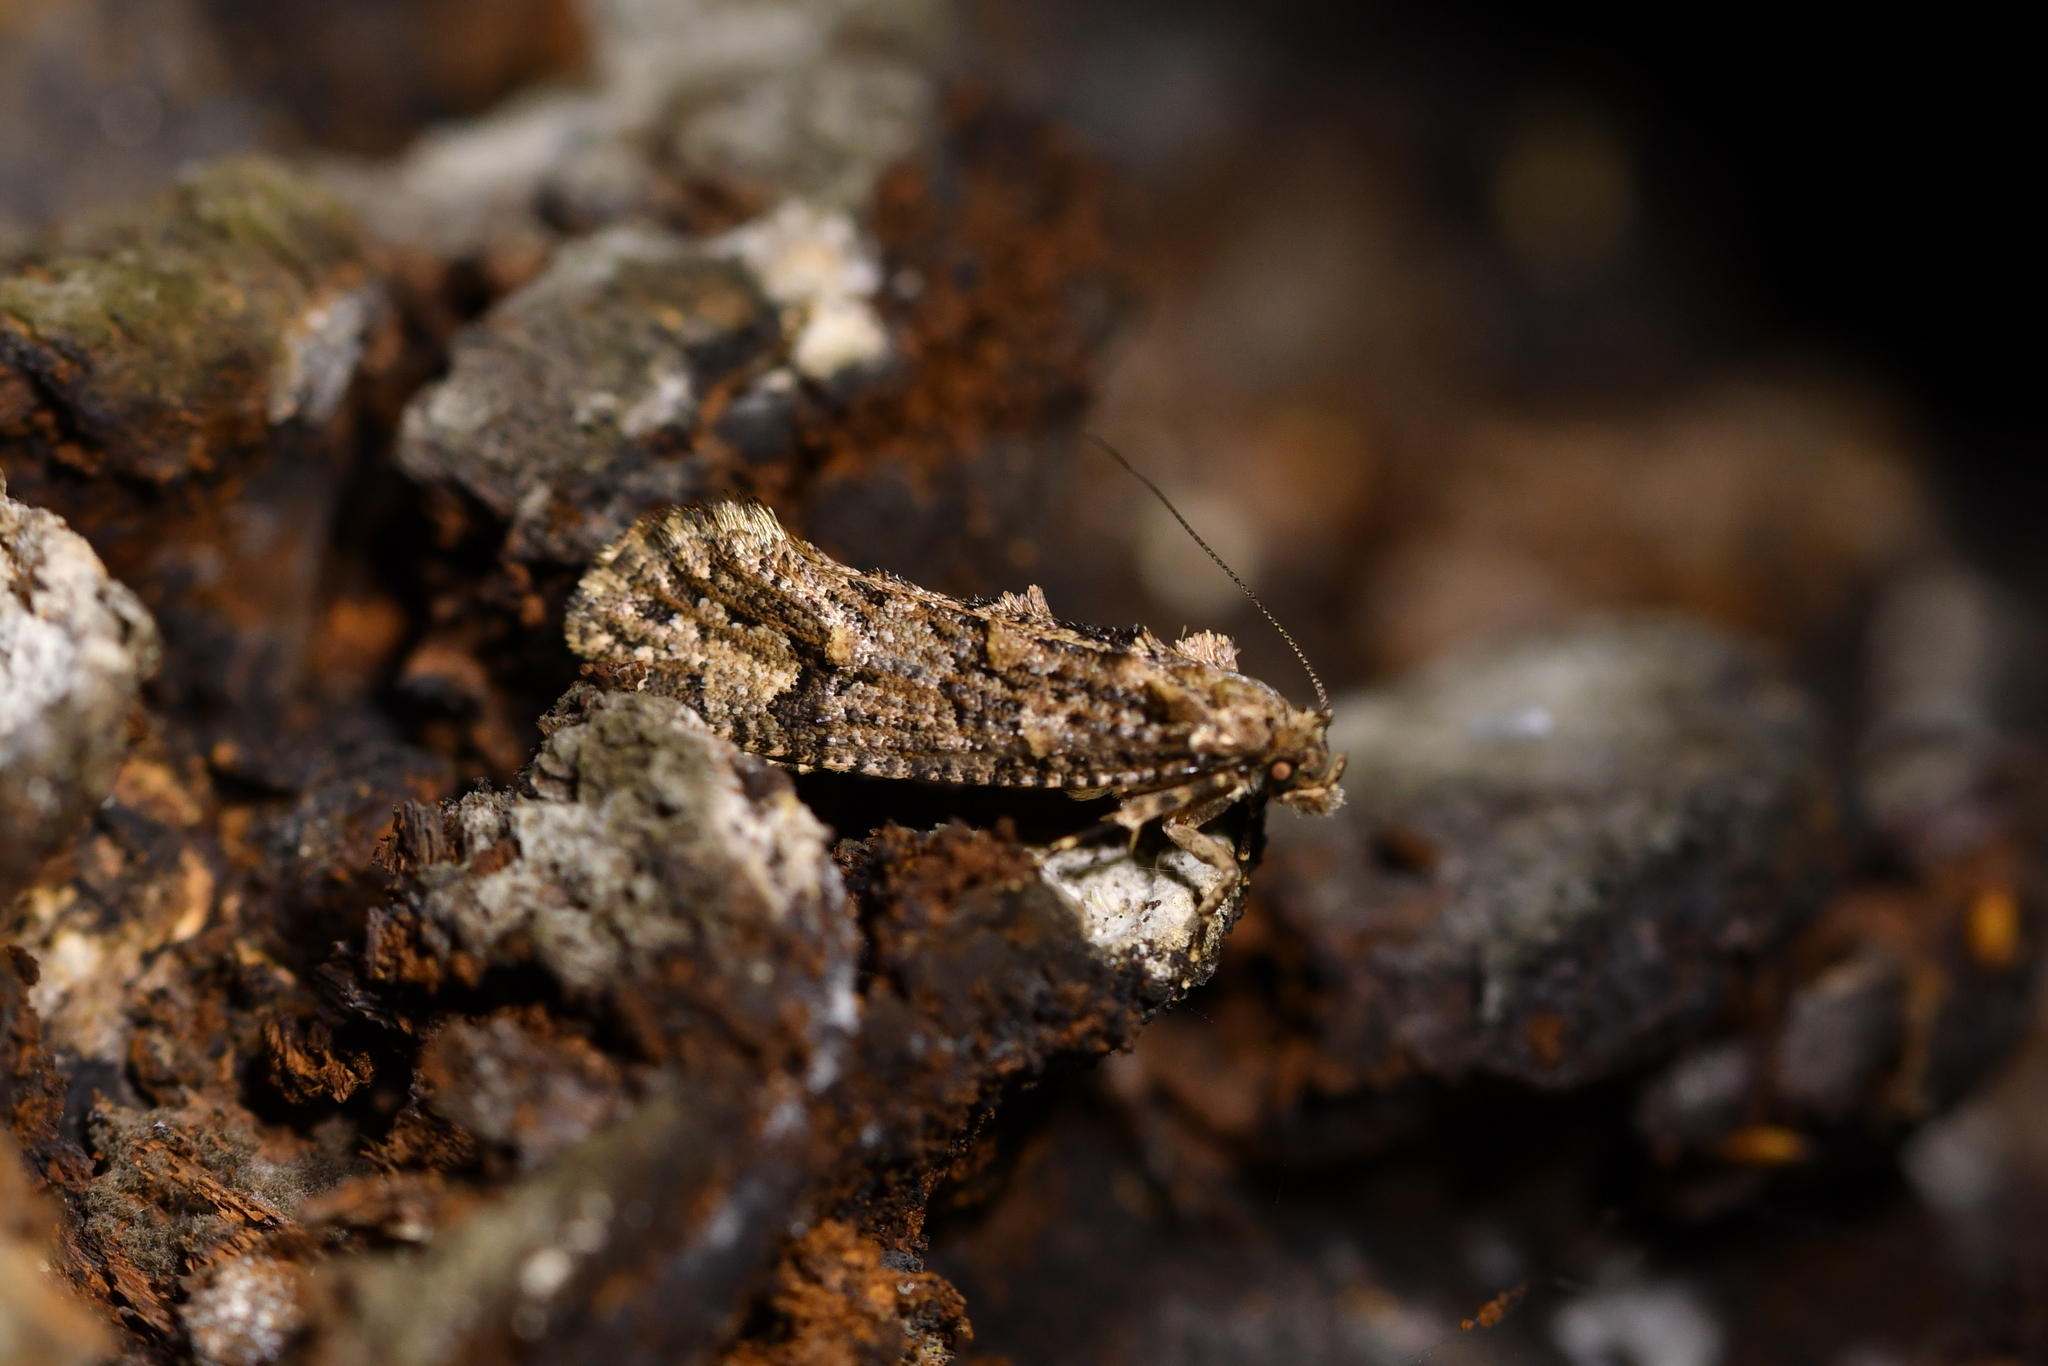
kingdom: Animalia
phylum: Arthropoda
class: Insecta
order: Lepidoptera
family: Tineidae
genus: Lysiphragma
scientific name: Lysiphragma epixyla
